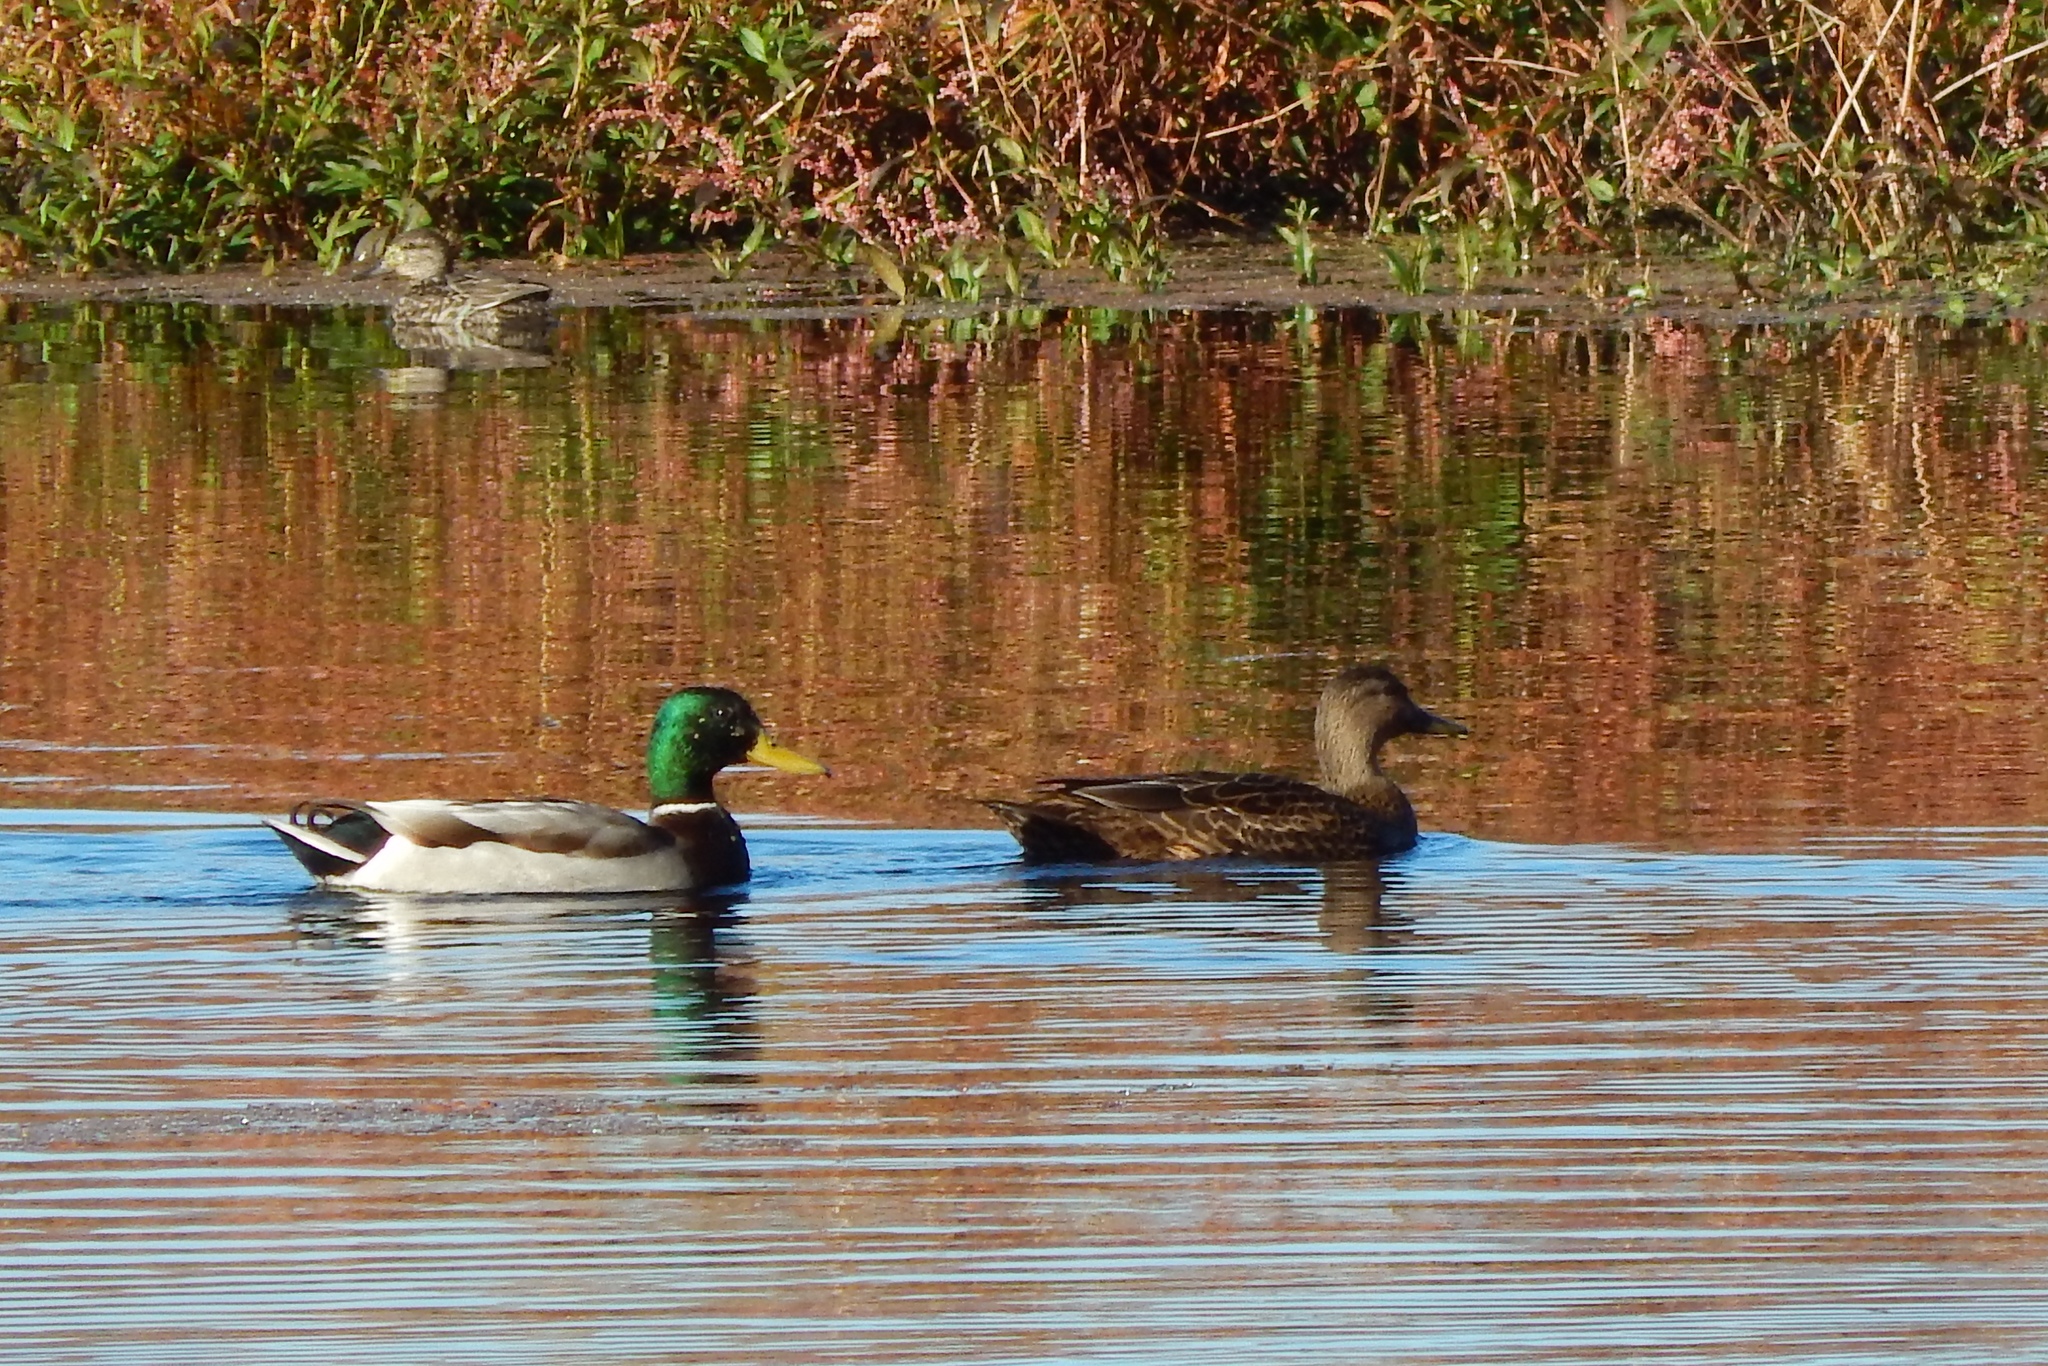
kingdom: Animalia
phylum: Chordata
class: Aves
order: Anseriformes
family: Anatidae
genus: Anas
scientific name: Anas platyrhynchos
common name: Mallard
